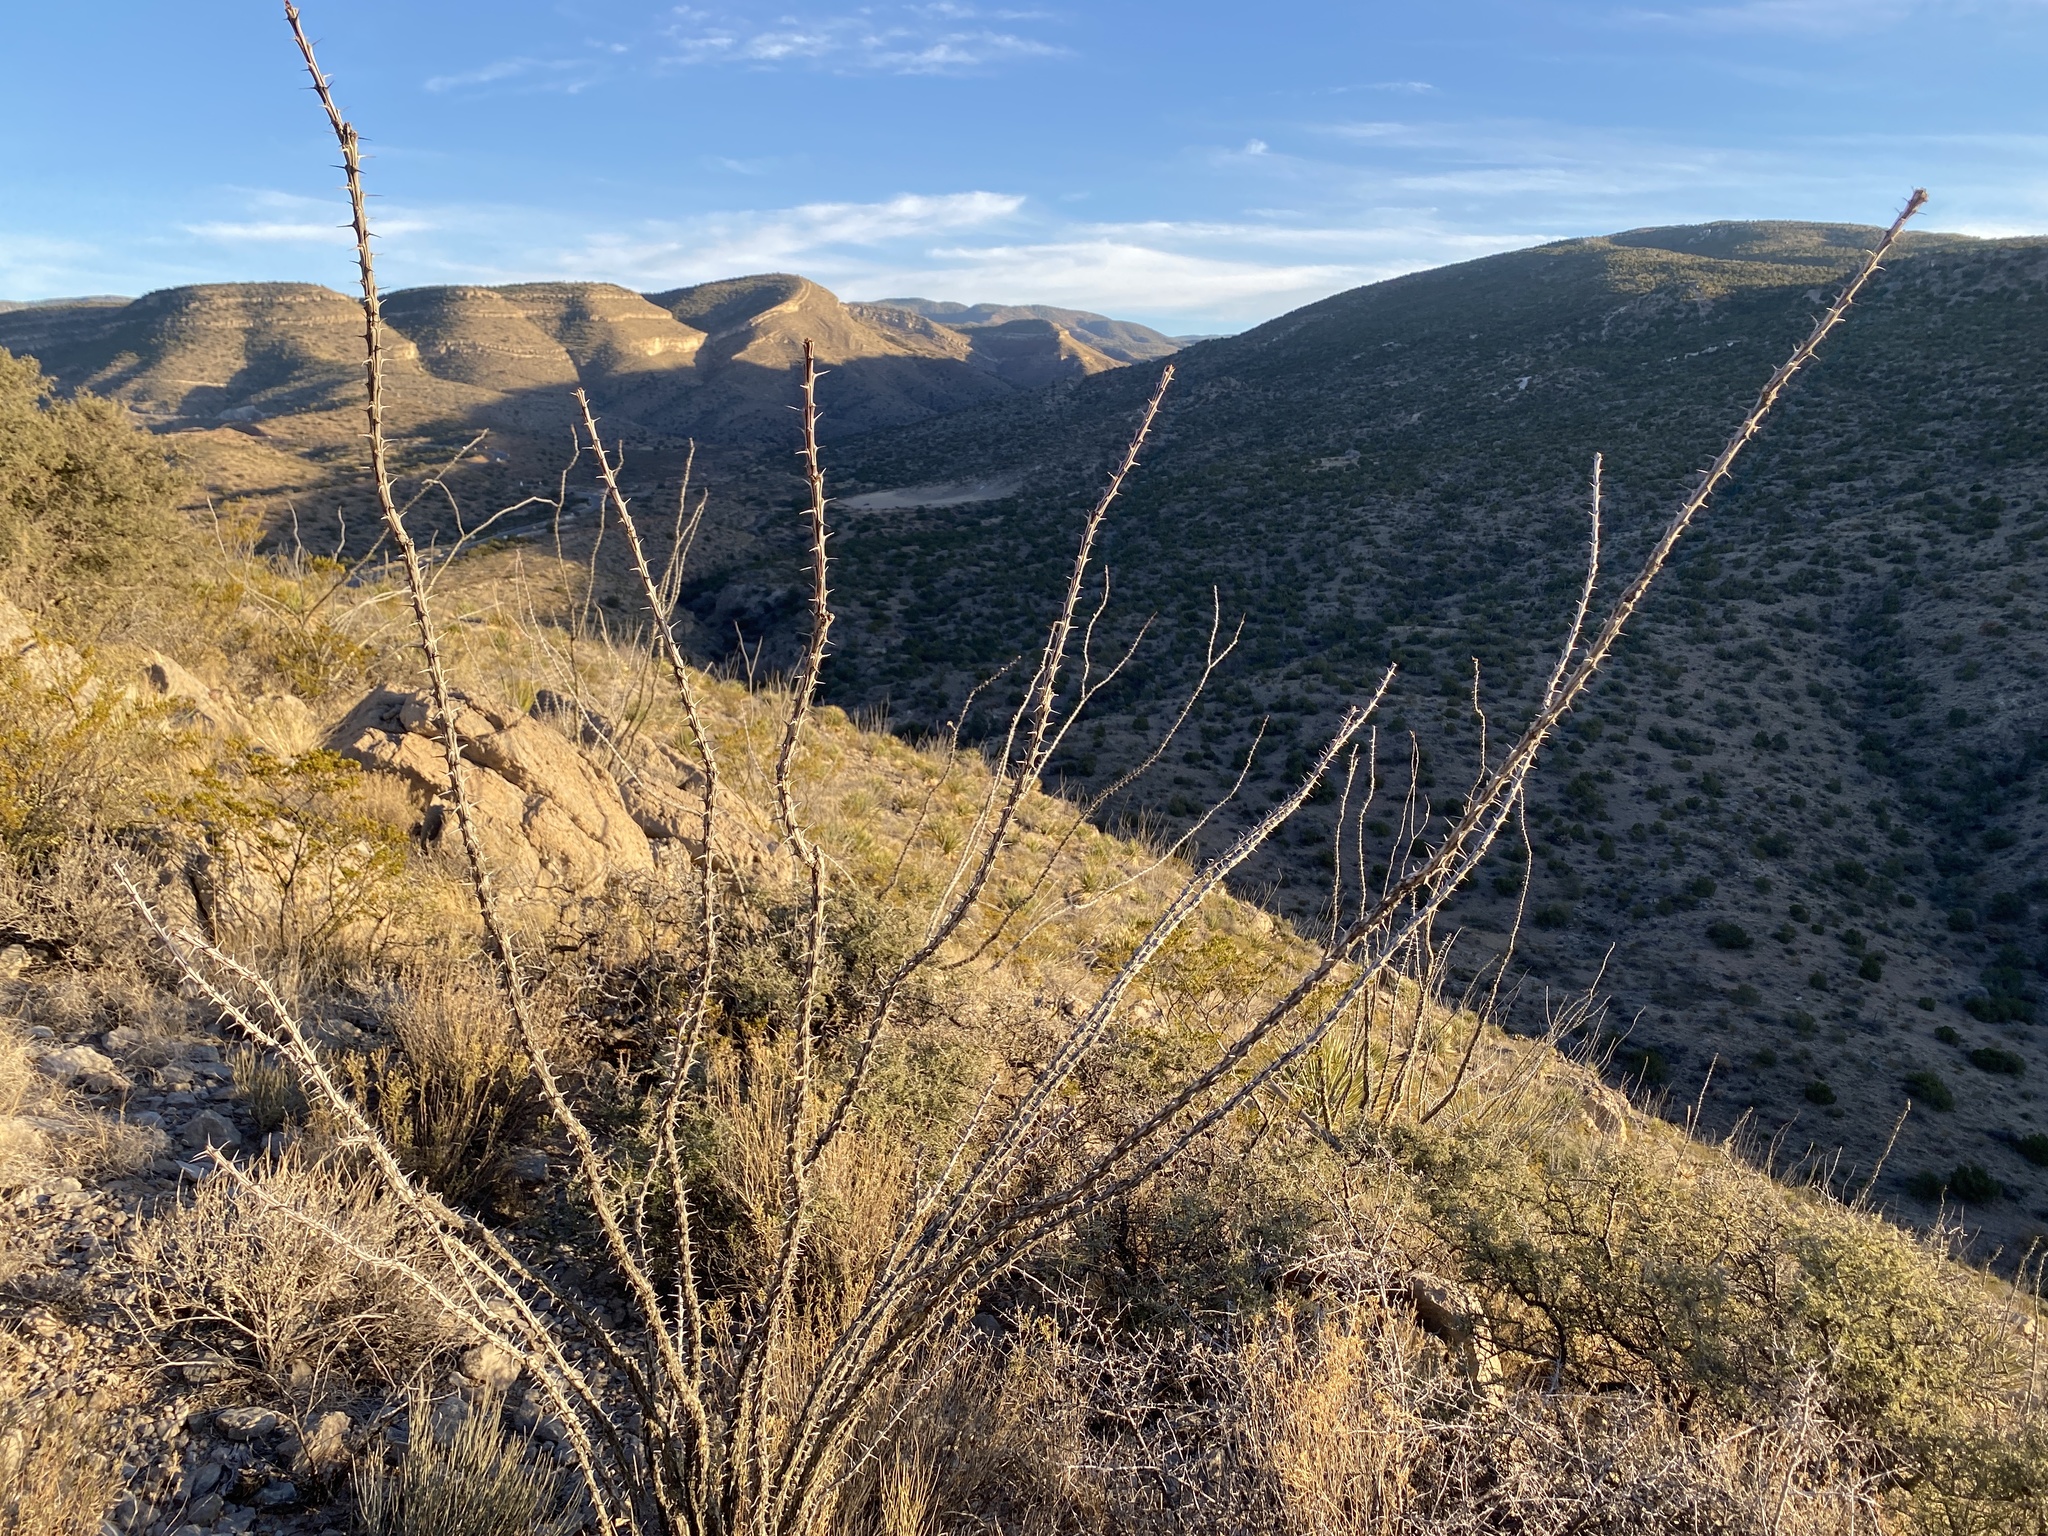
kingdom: Plantae
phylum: Tracheophyta
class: Magnoliopsida
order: Ericales
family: Fouquieriaceae
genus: Fouquieria
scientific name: Fouquieria splendens
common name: Vine-cactus
